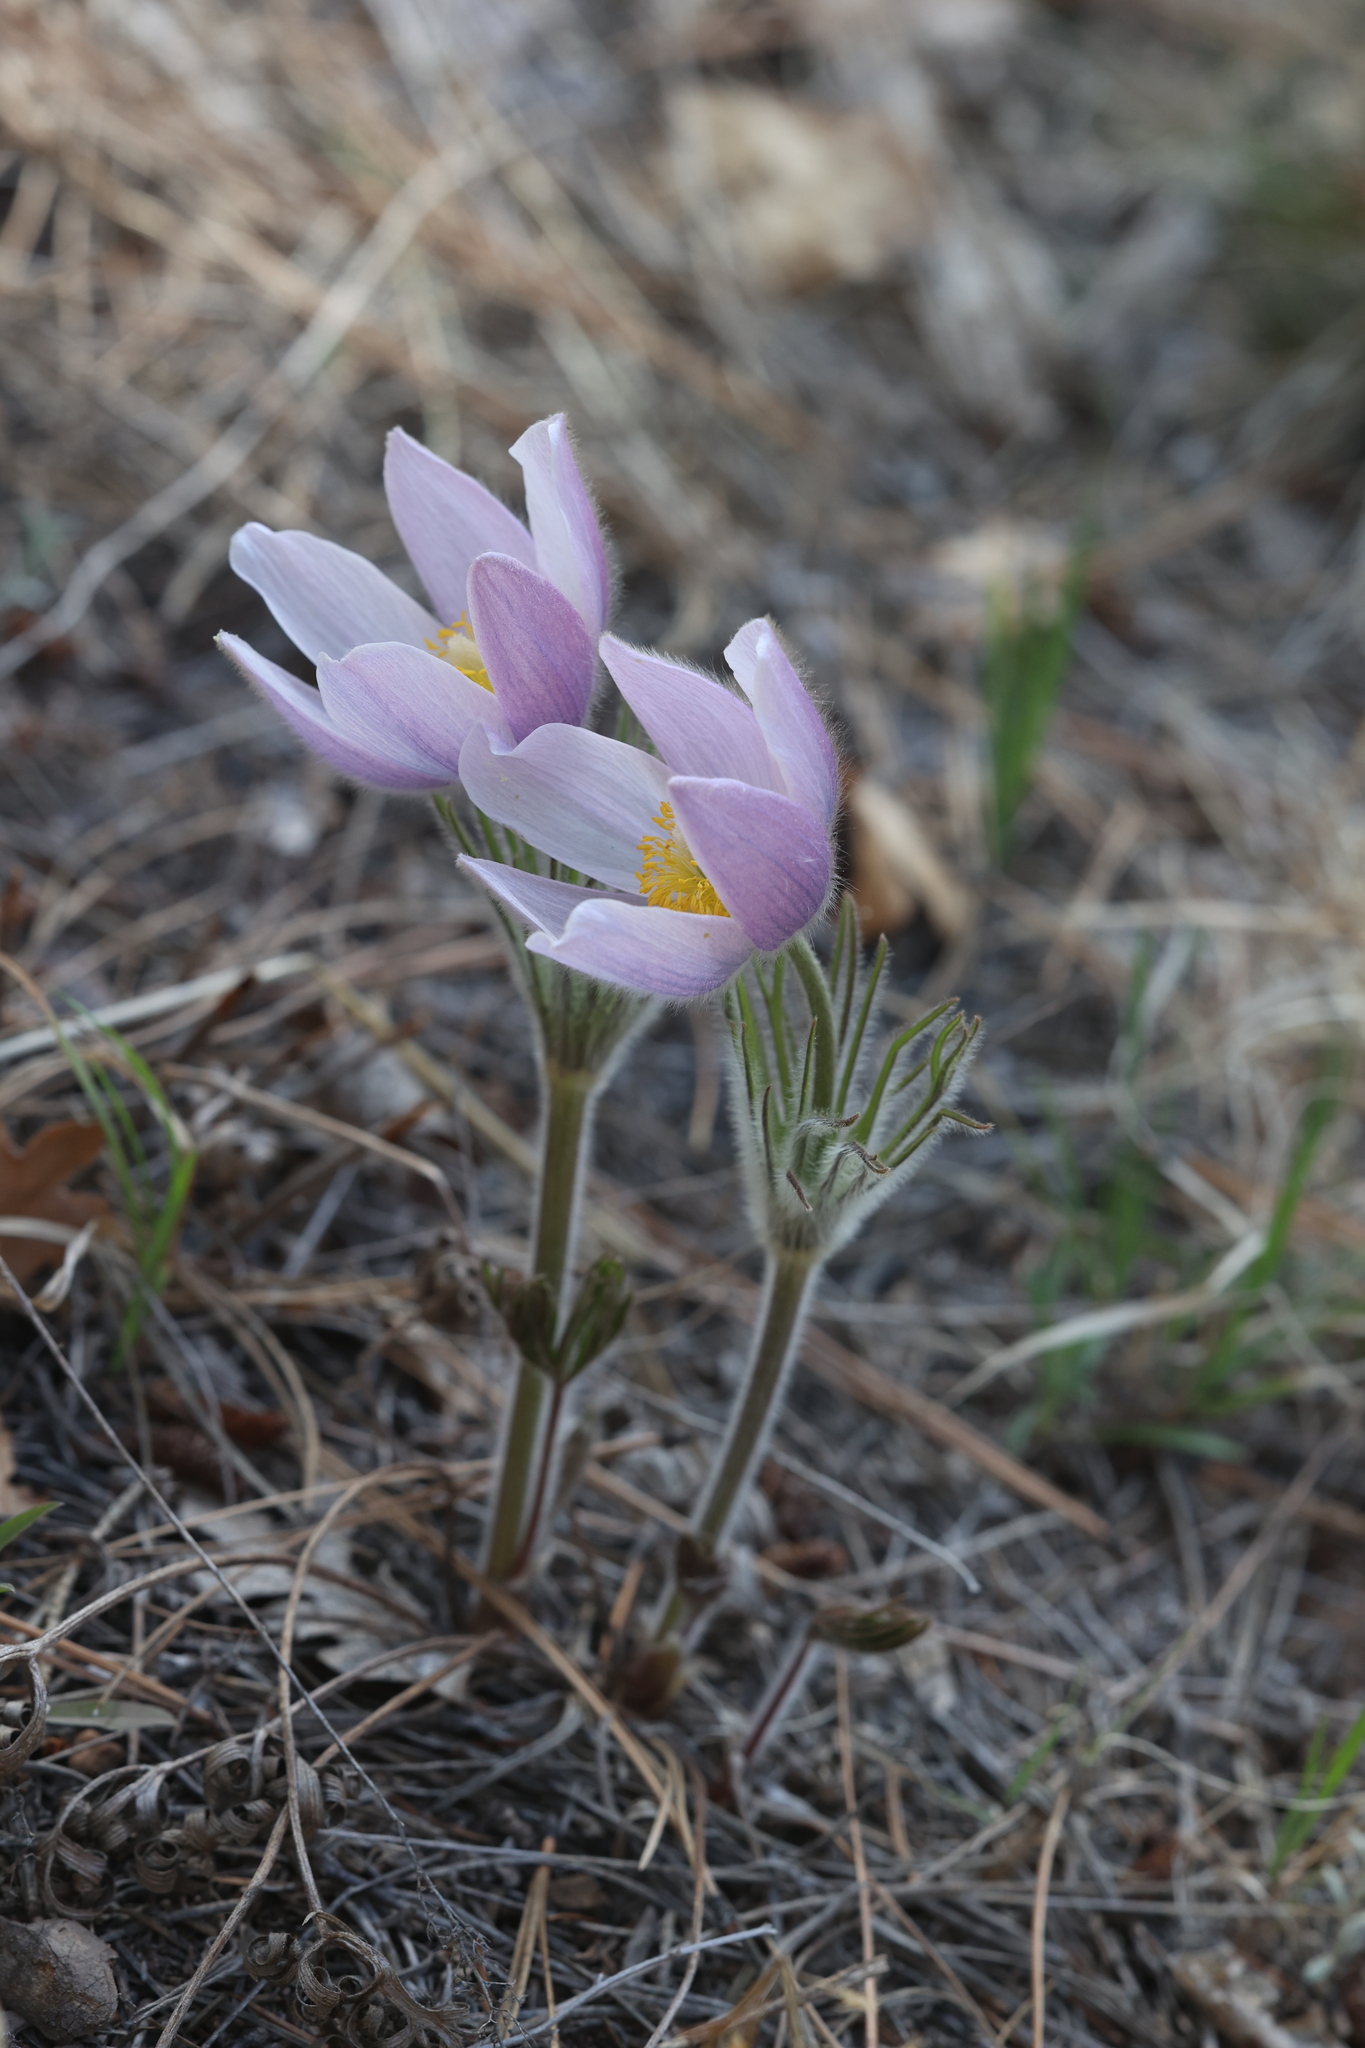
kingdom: Plantae
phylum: Tracheophyta
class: Magnoliopsida
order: Ranunculales
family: Ranunculaceae
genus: Pulsatilla
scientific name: Pulsatilla nuttalliana
